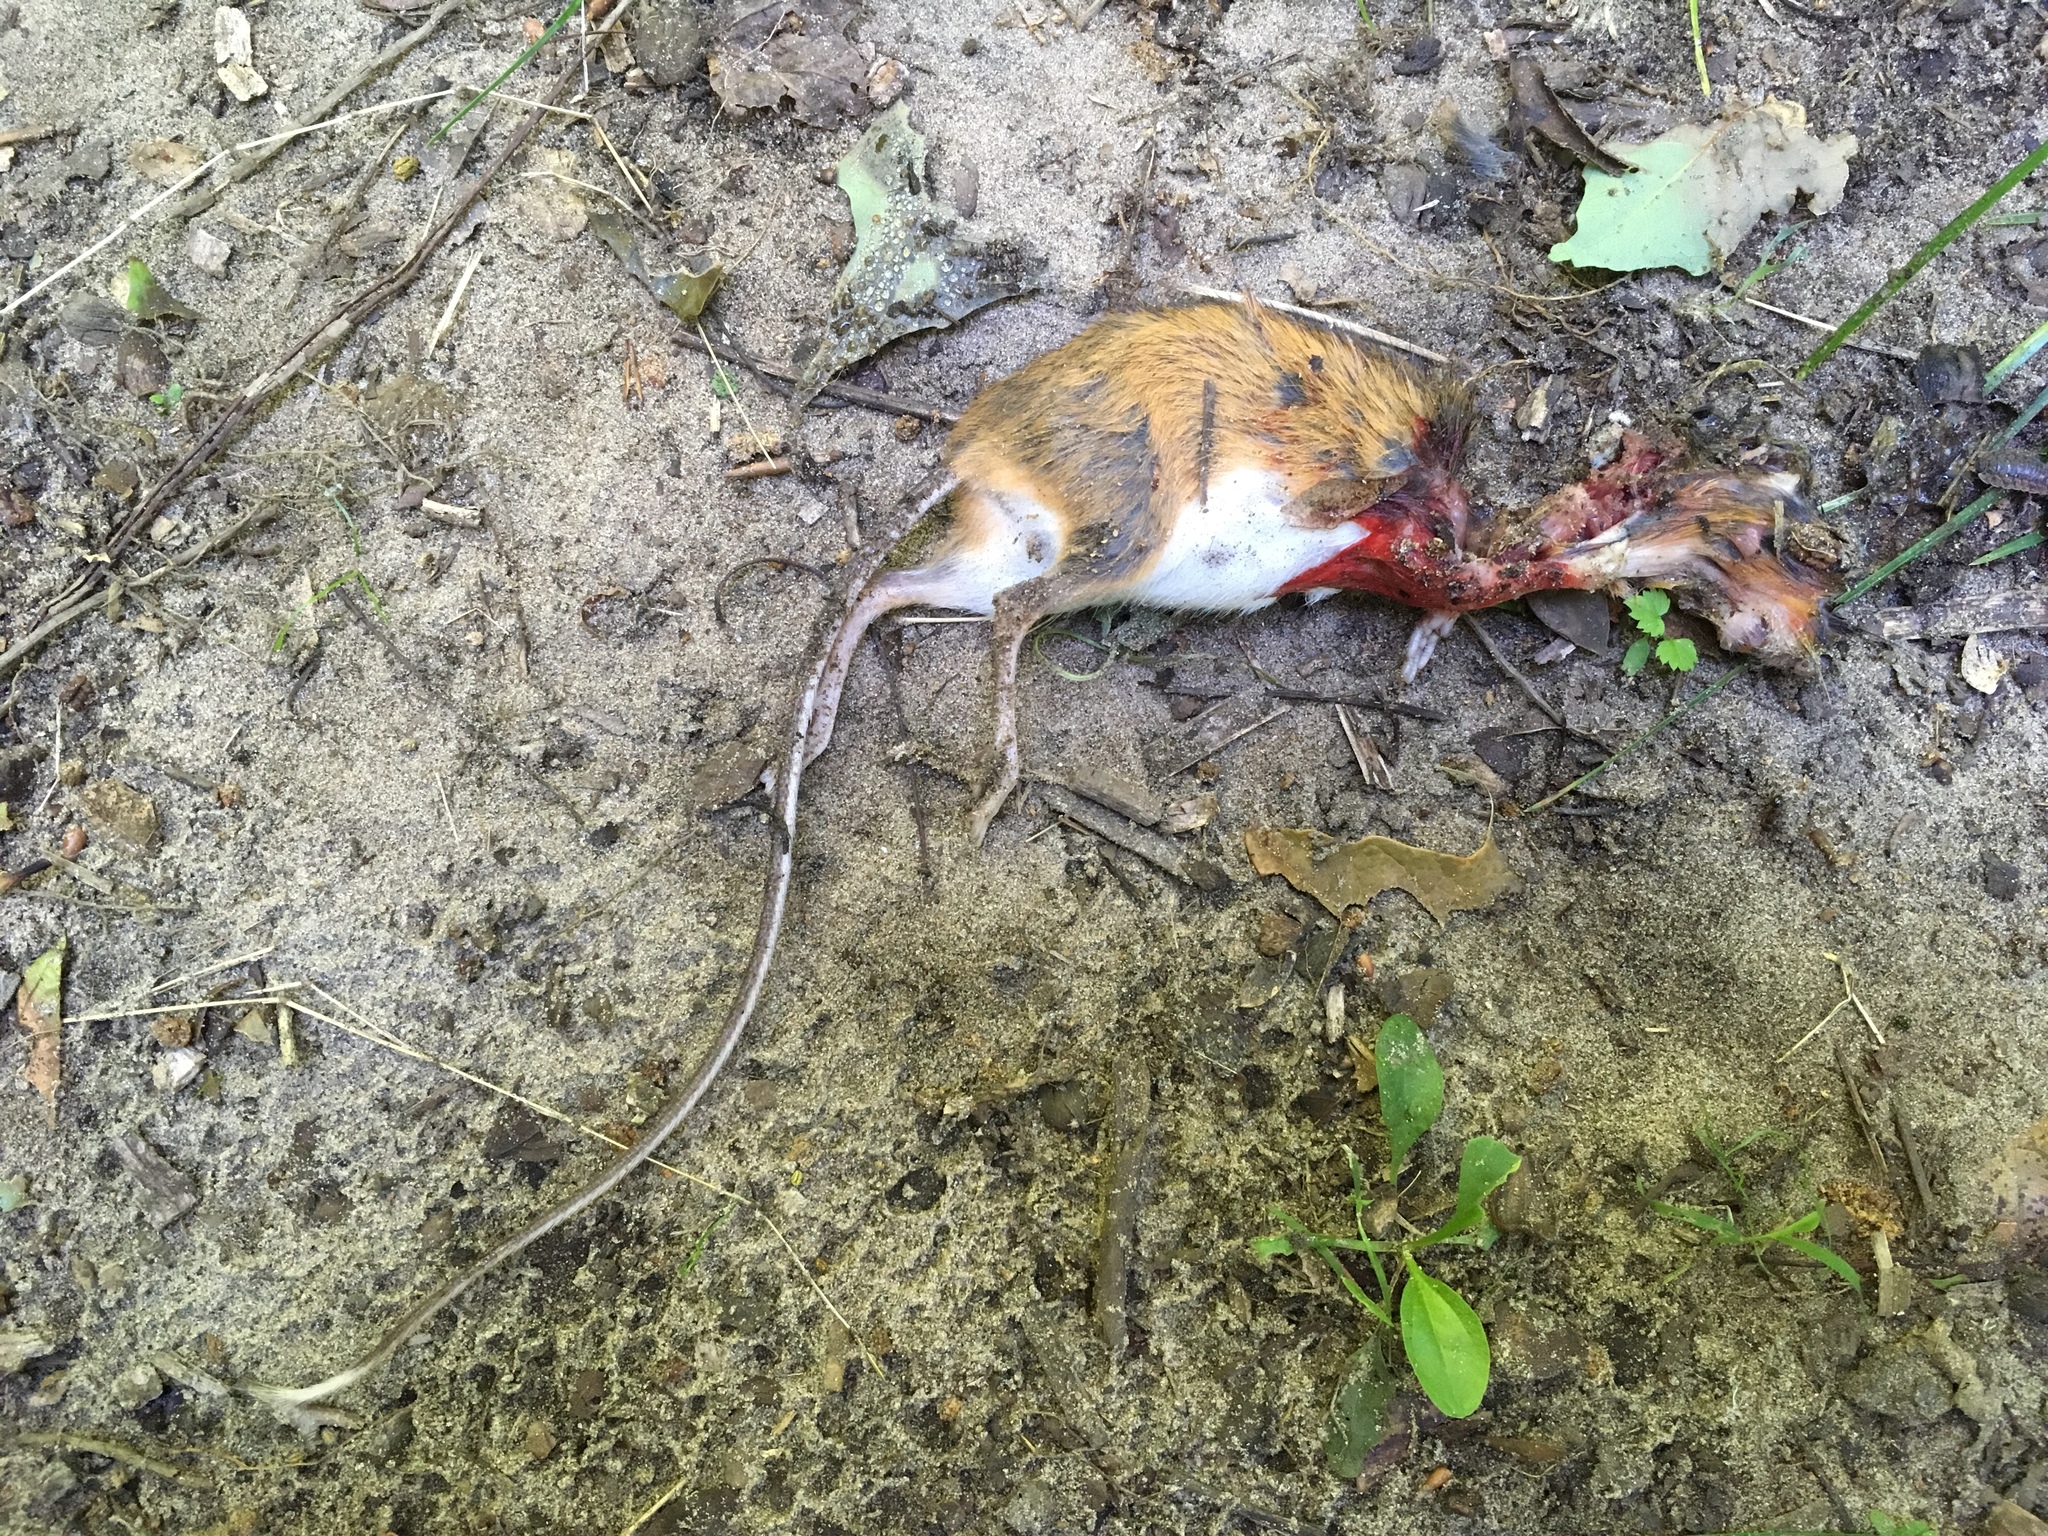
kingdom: Animalia
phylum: Chordata
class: Mammalia
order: Rodentia
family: Dipodidae
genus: Napaeozapus
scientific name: Napaeozapus insignis
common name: Woodland jumping mouse
